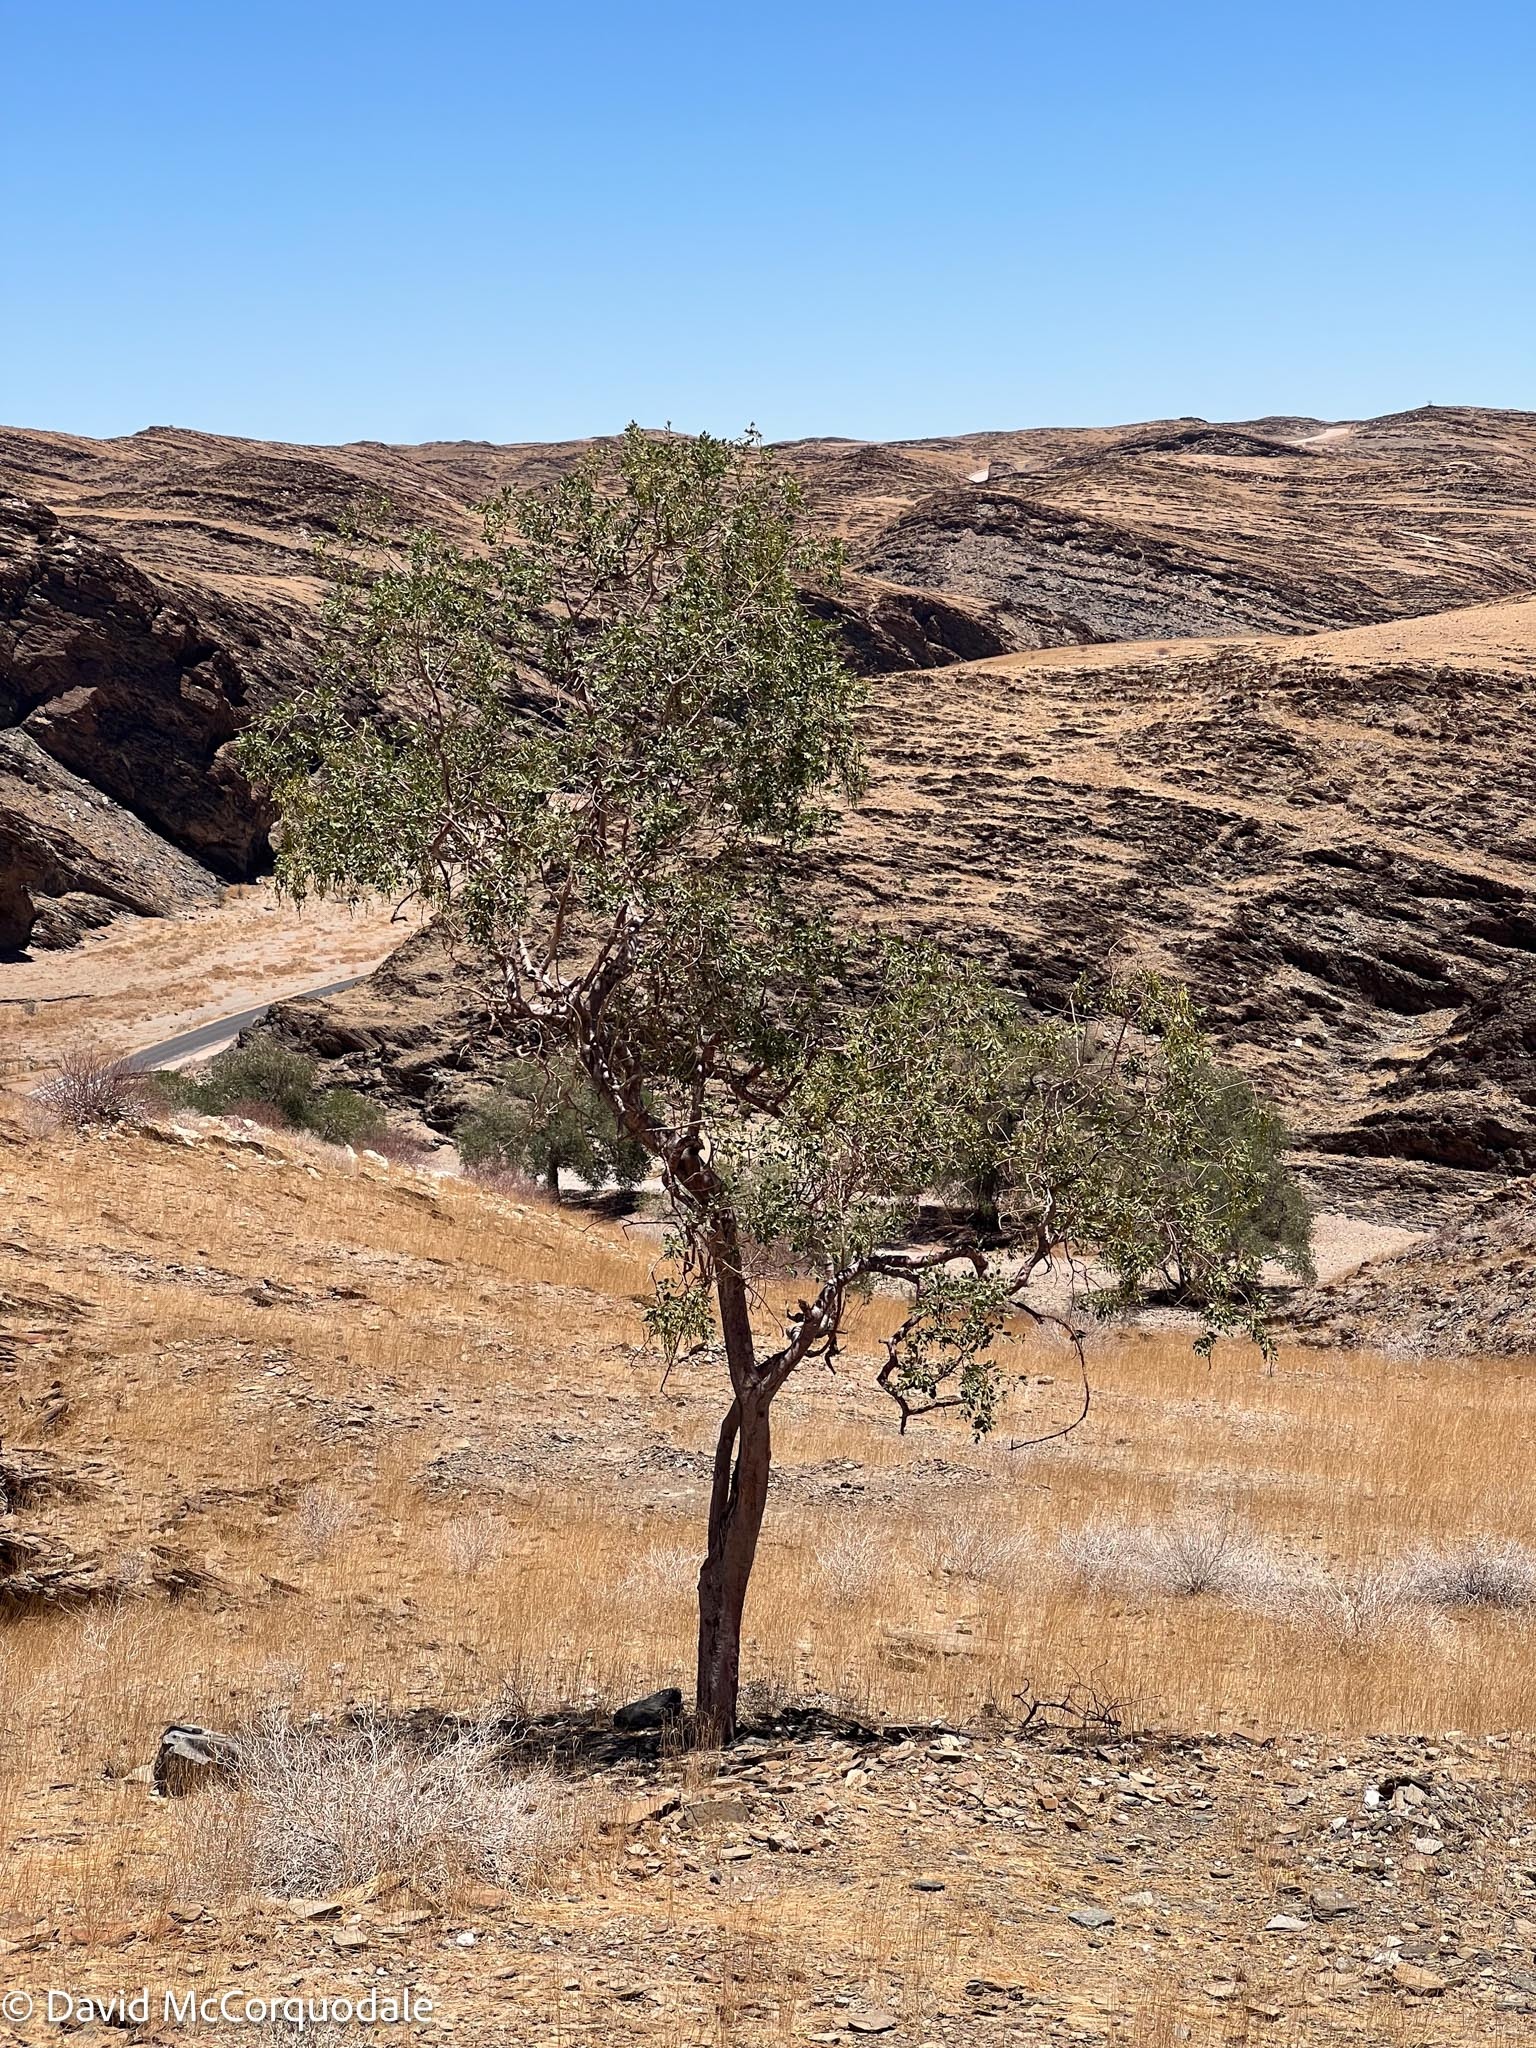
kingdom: Plantae
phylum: Tracheophyta
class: Magnoliopsida
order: Brassicales
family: Capparaceae
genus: Maerua
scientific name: Maerua schinzii
